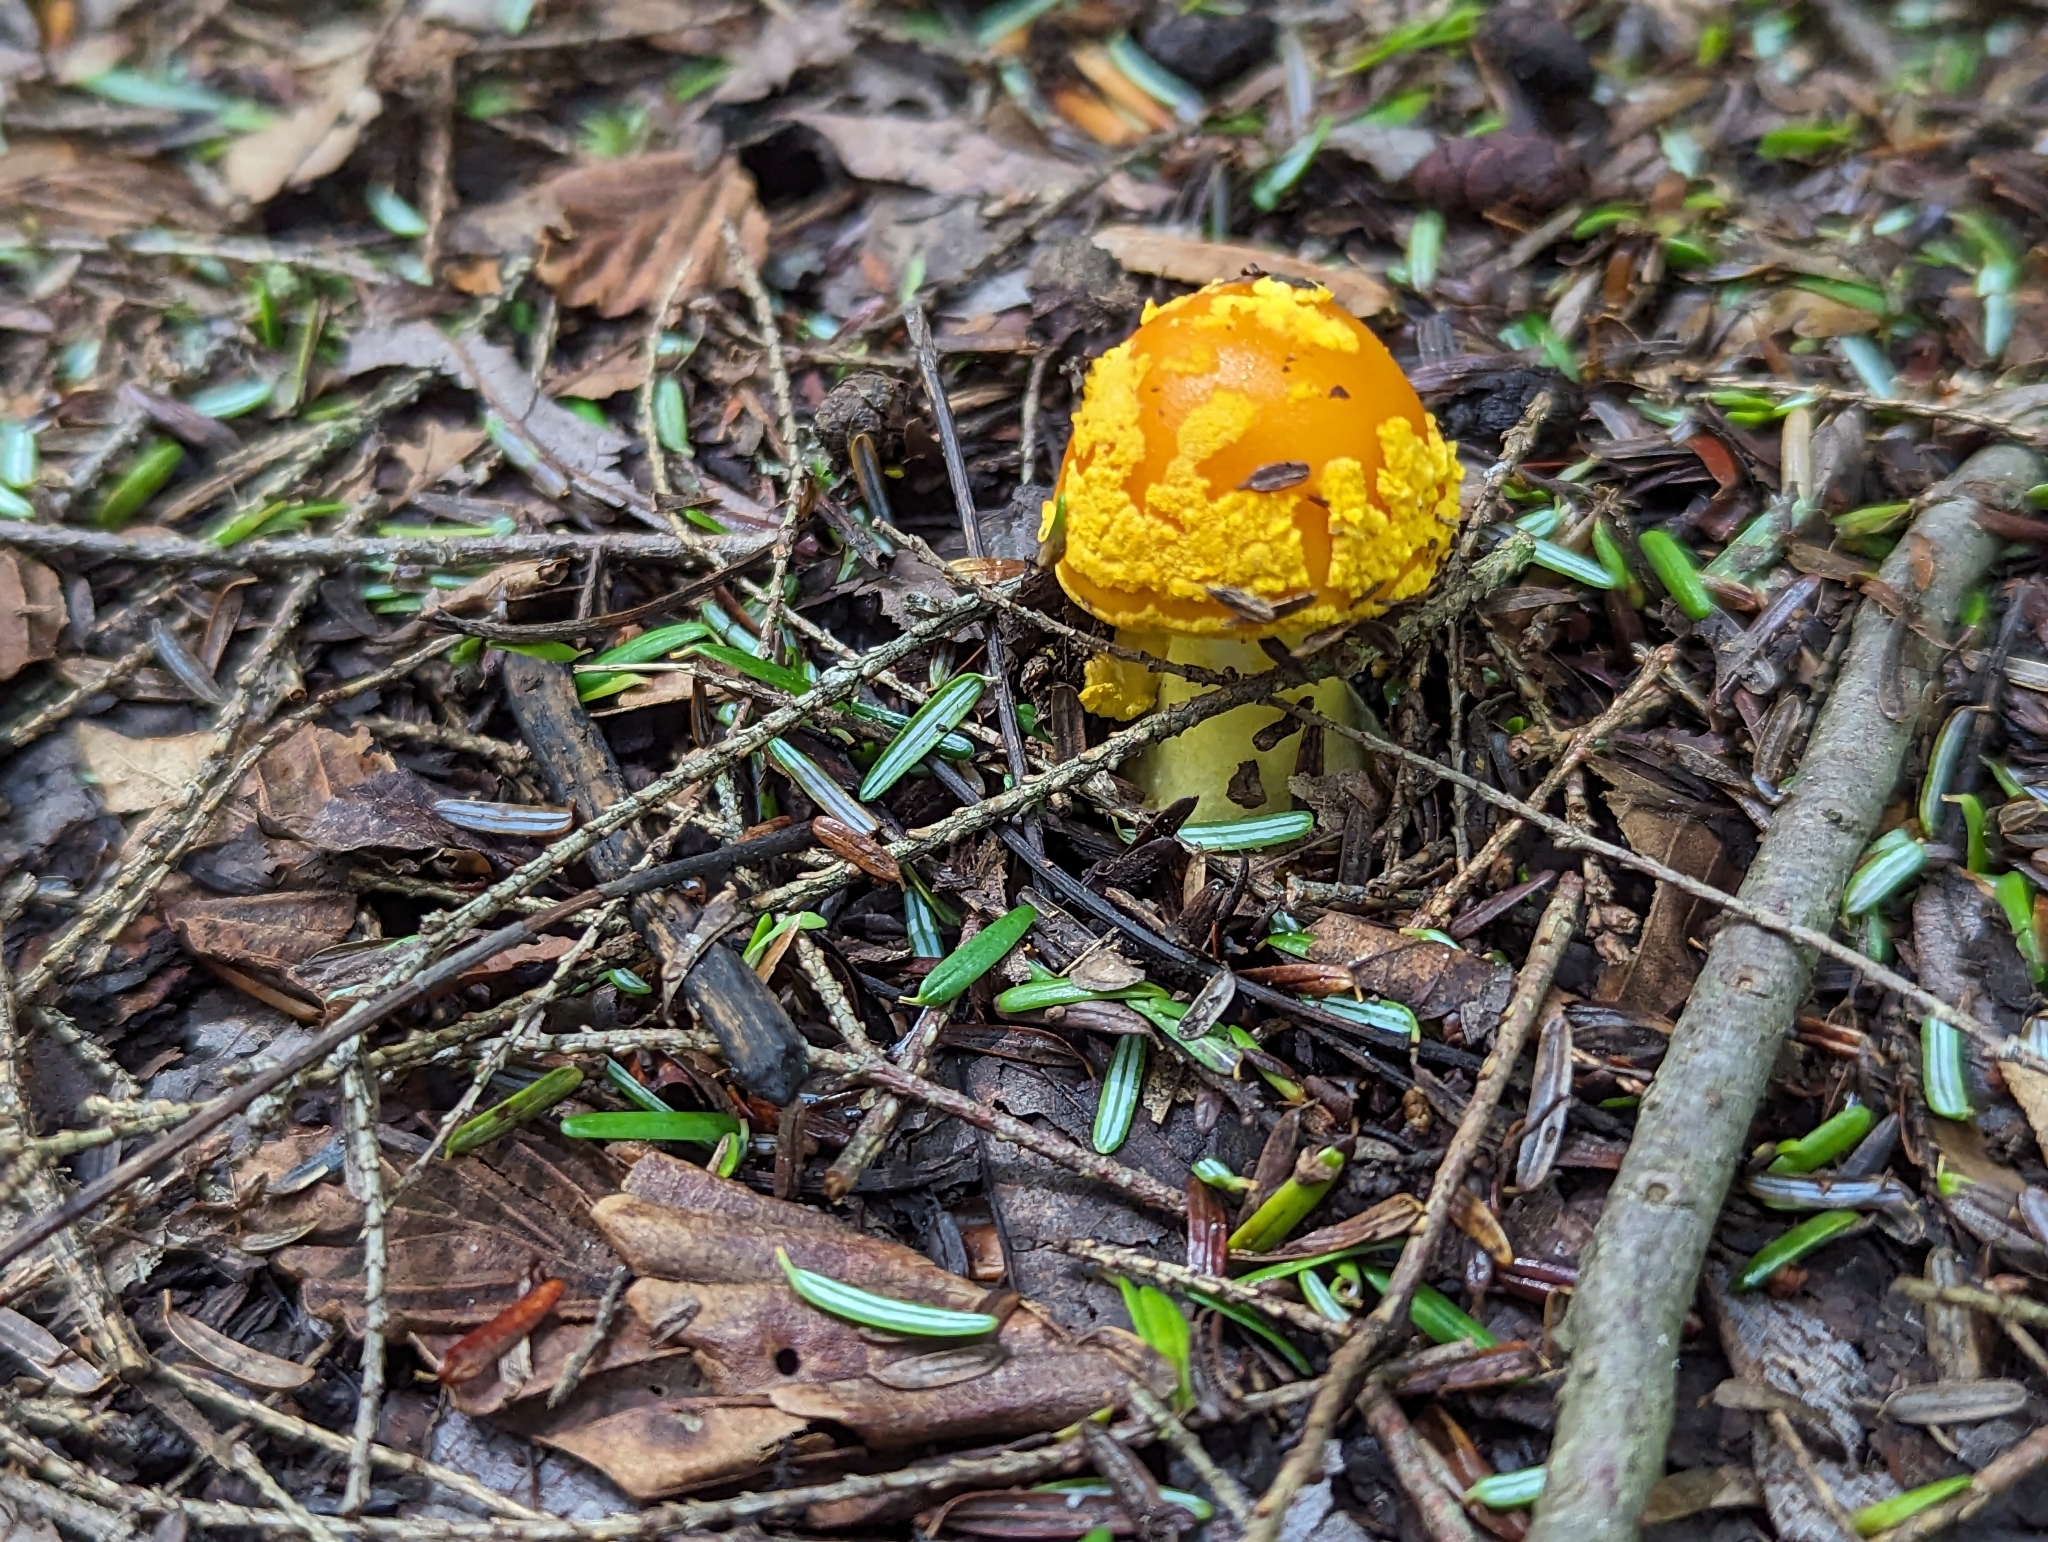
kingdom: Fungi
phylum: Basidiomycota
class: Agaricomycetes
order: Agaricales
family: Amanitaceae
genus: Amanita
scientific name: Amanita flavoconia
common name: Yellow patches
